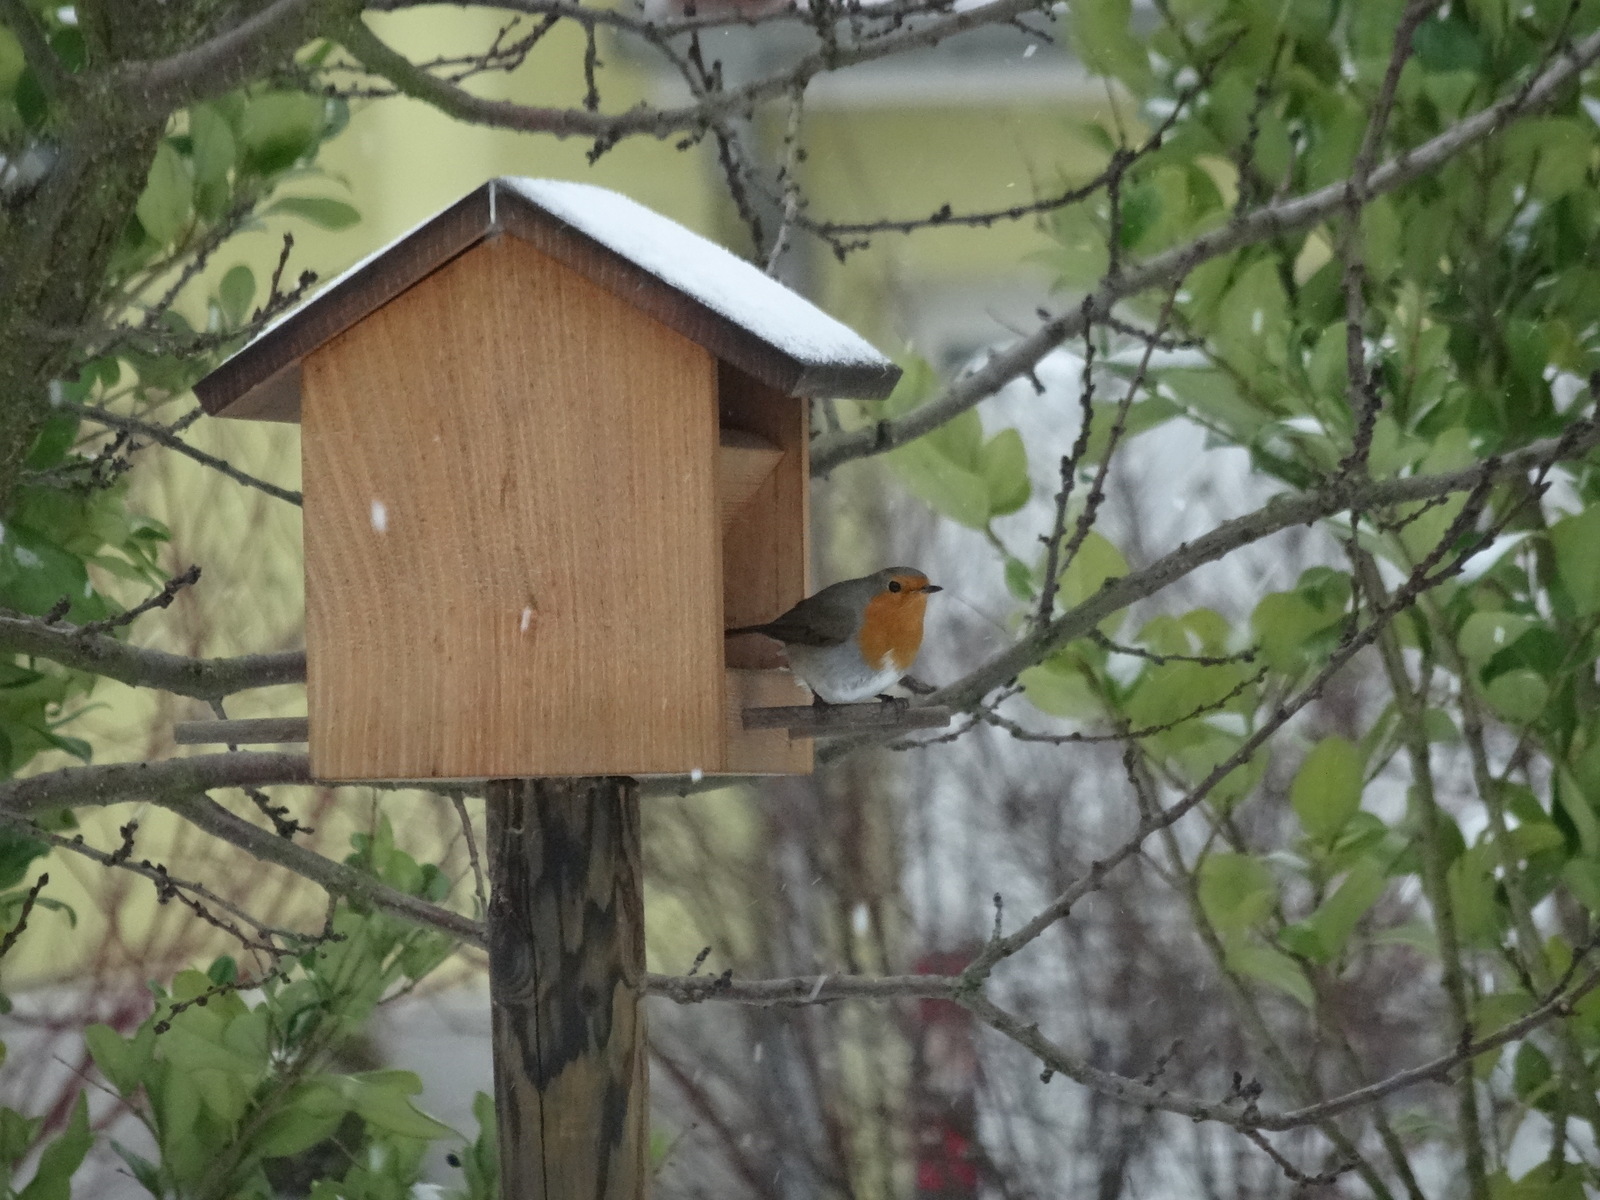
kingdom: Animalia
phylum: Chordata
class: Aves
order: Passeriformes
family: Muscicapidae
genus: Erithacus
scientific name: Erithacus rubecula
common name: European robin
